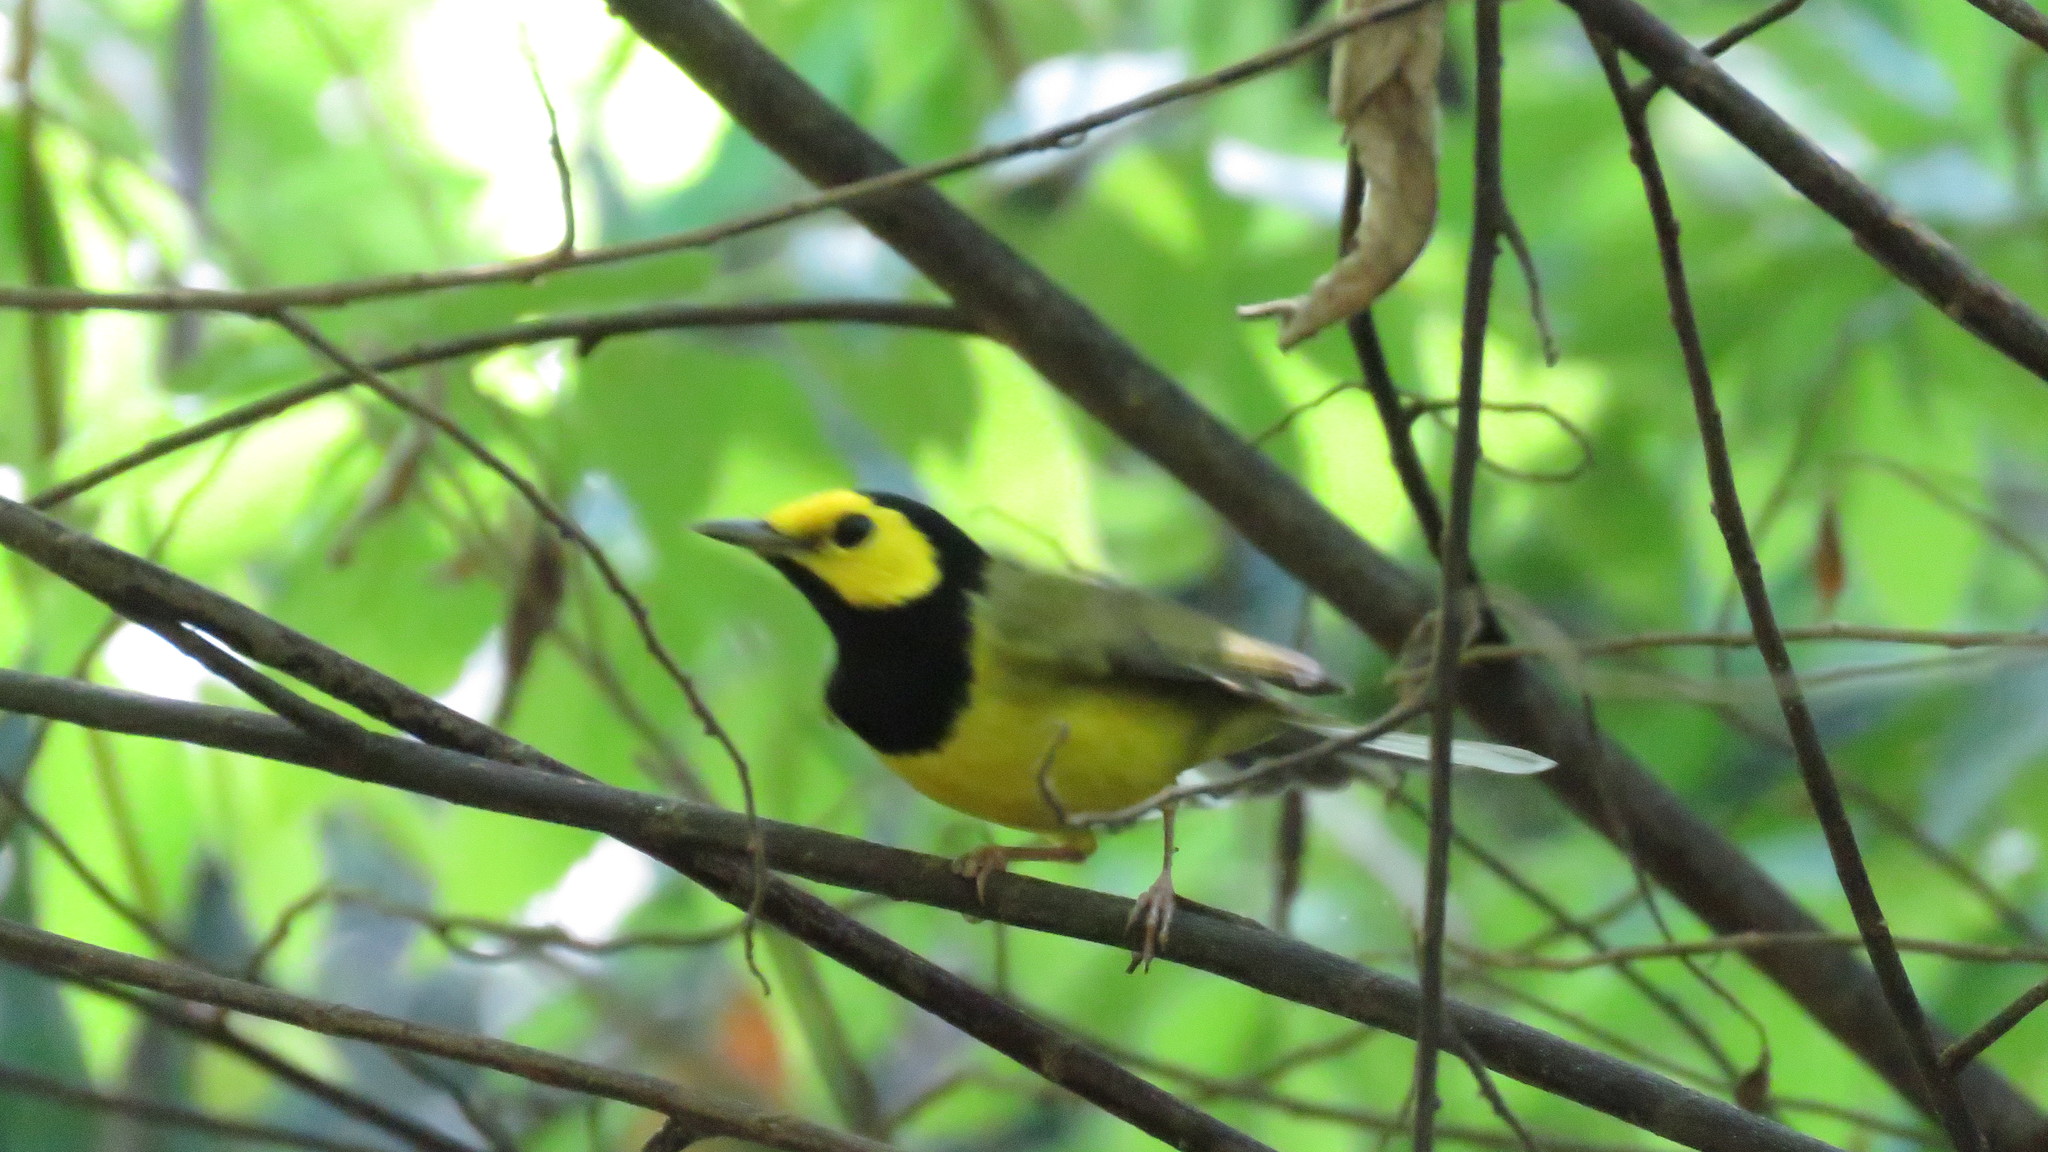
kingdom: Animalia
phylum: Chordata
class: Aves
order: Passeriformes
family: Parulidae
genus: Setophaga
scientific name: Setophaga citrina
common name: Hooded warbler
